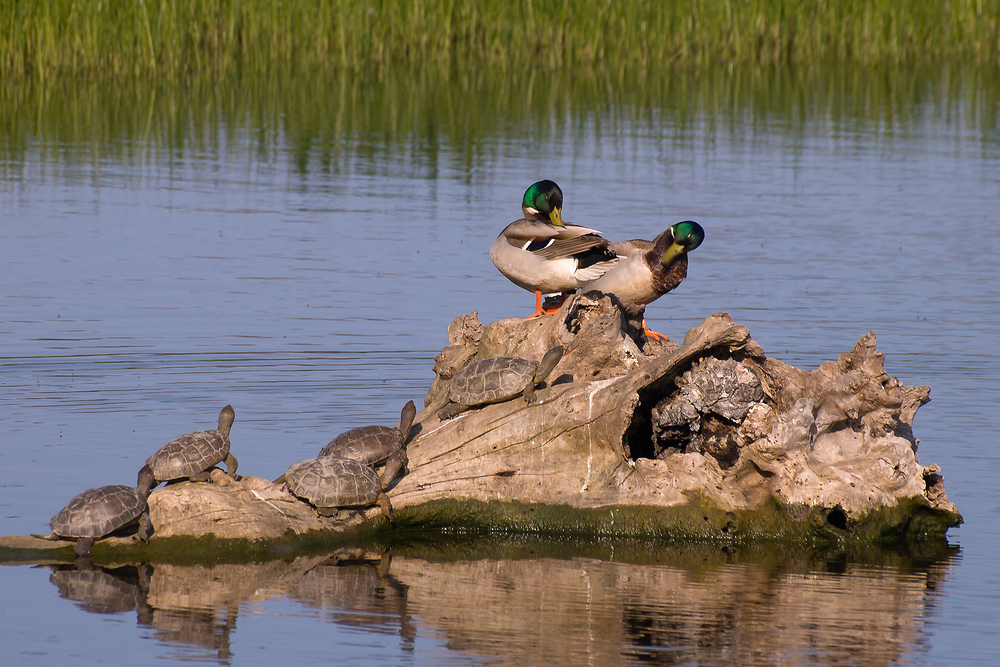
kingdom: Animalia
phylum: Chordata
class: Testudines
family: Geoemydidae
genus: Mauremys
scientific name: Mauremys leprosa
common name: Mediterranean pond turtle
